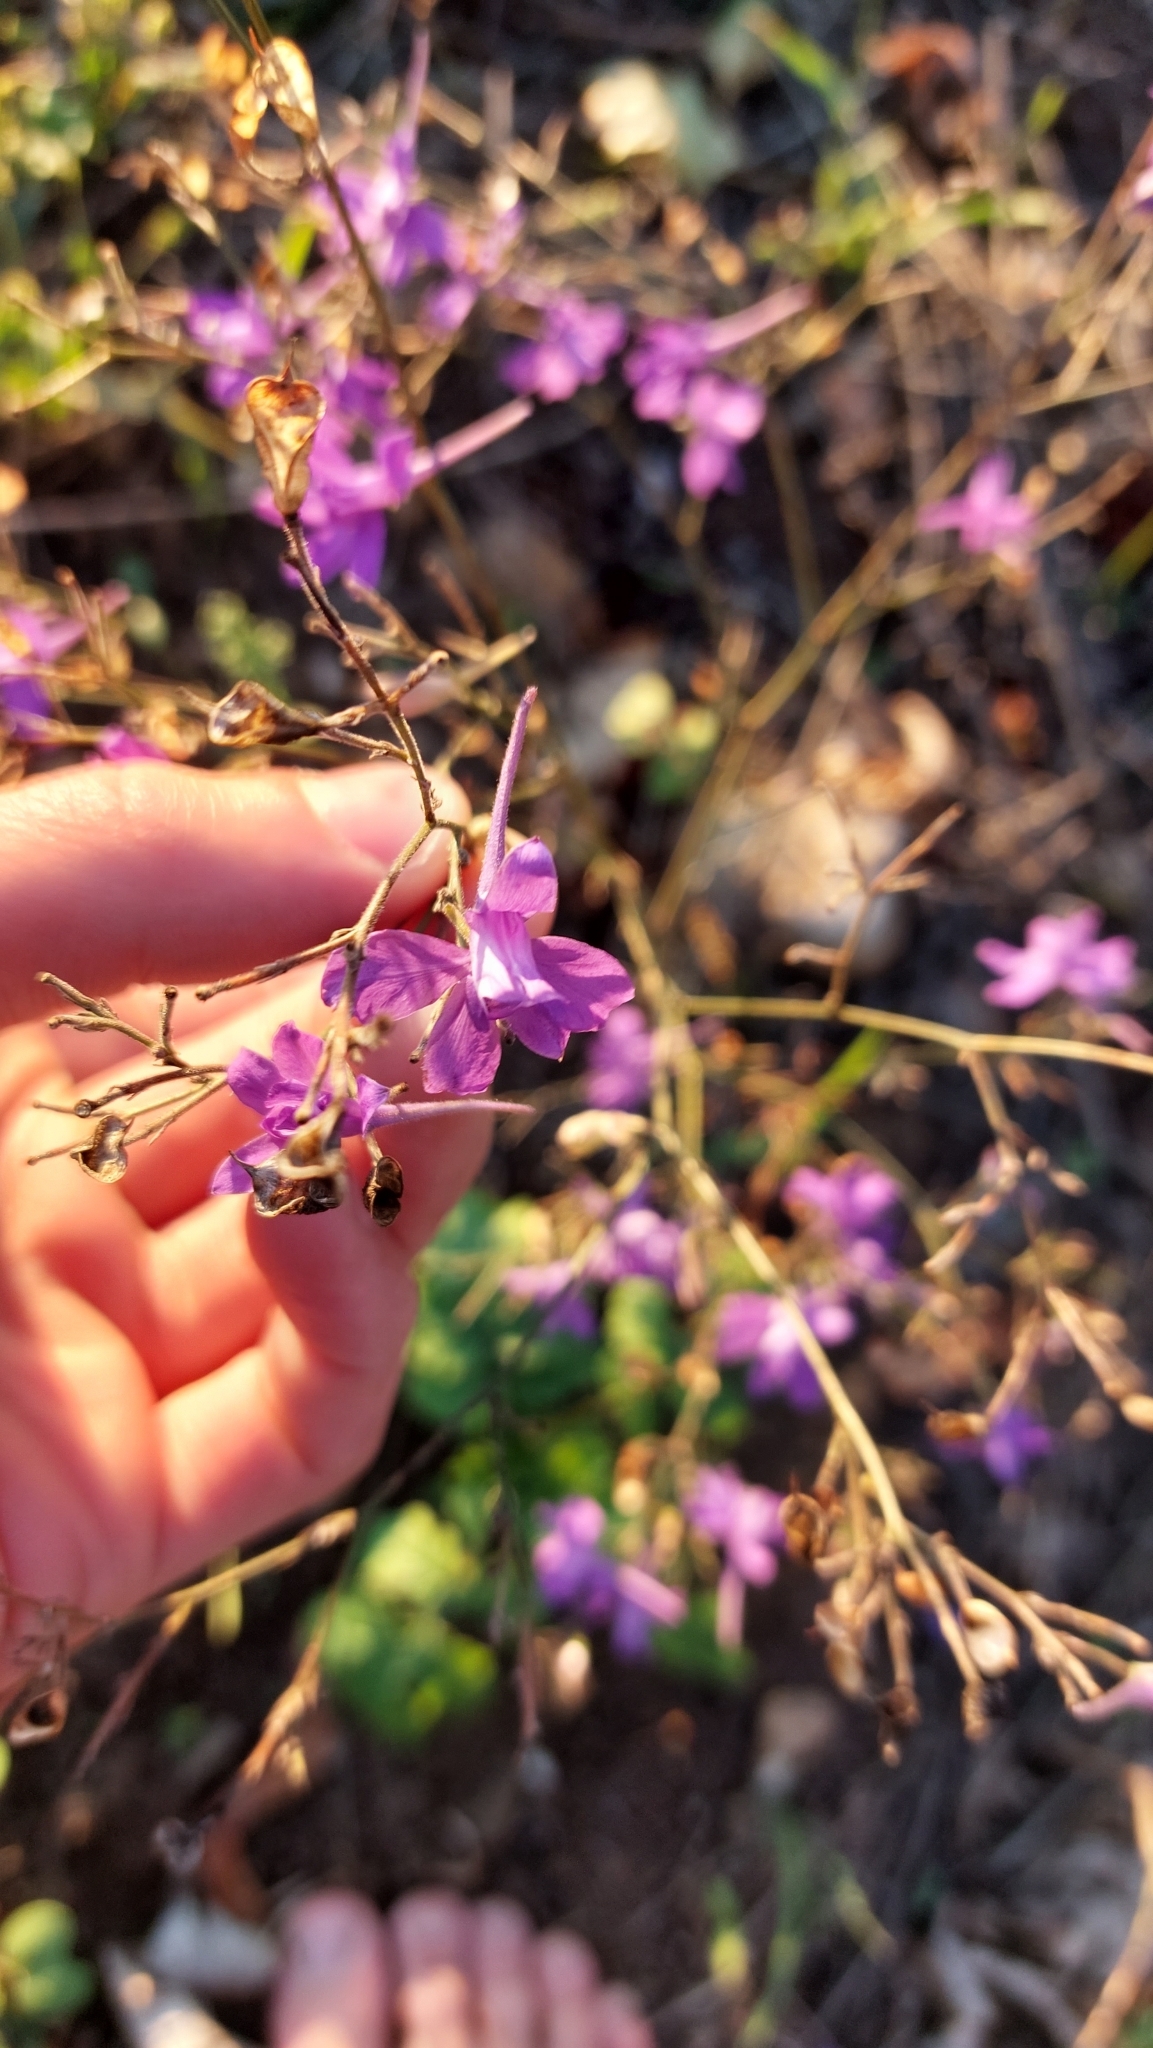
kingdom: Plantae
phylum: Tracheophyta
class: Magnoliopsida
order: Ranunculales
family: Ranunculaceae
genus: Delphinium
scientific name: Delphinium consolida
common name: Branching larkspur
